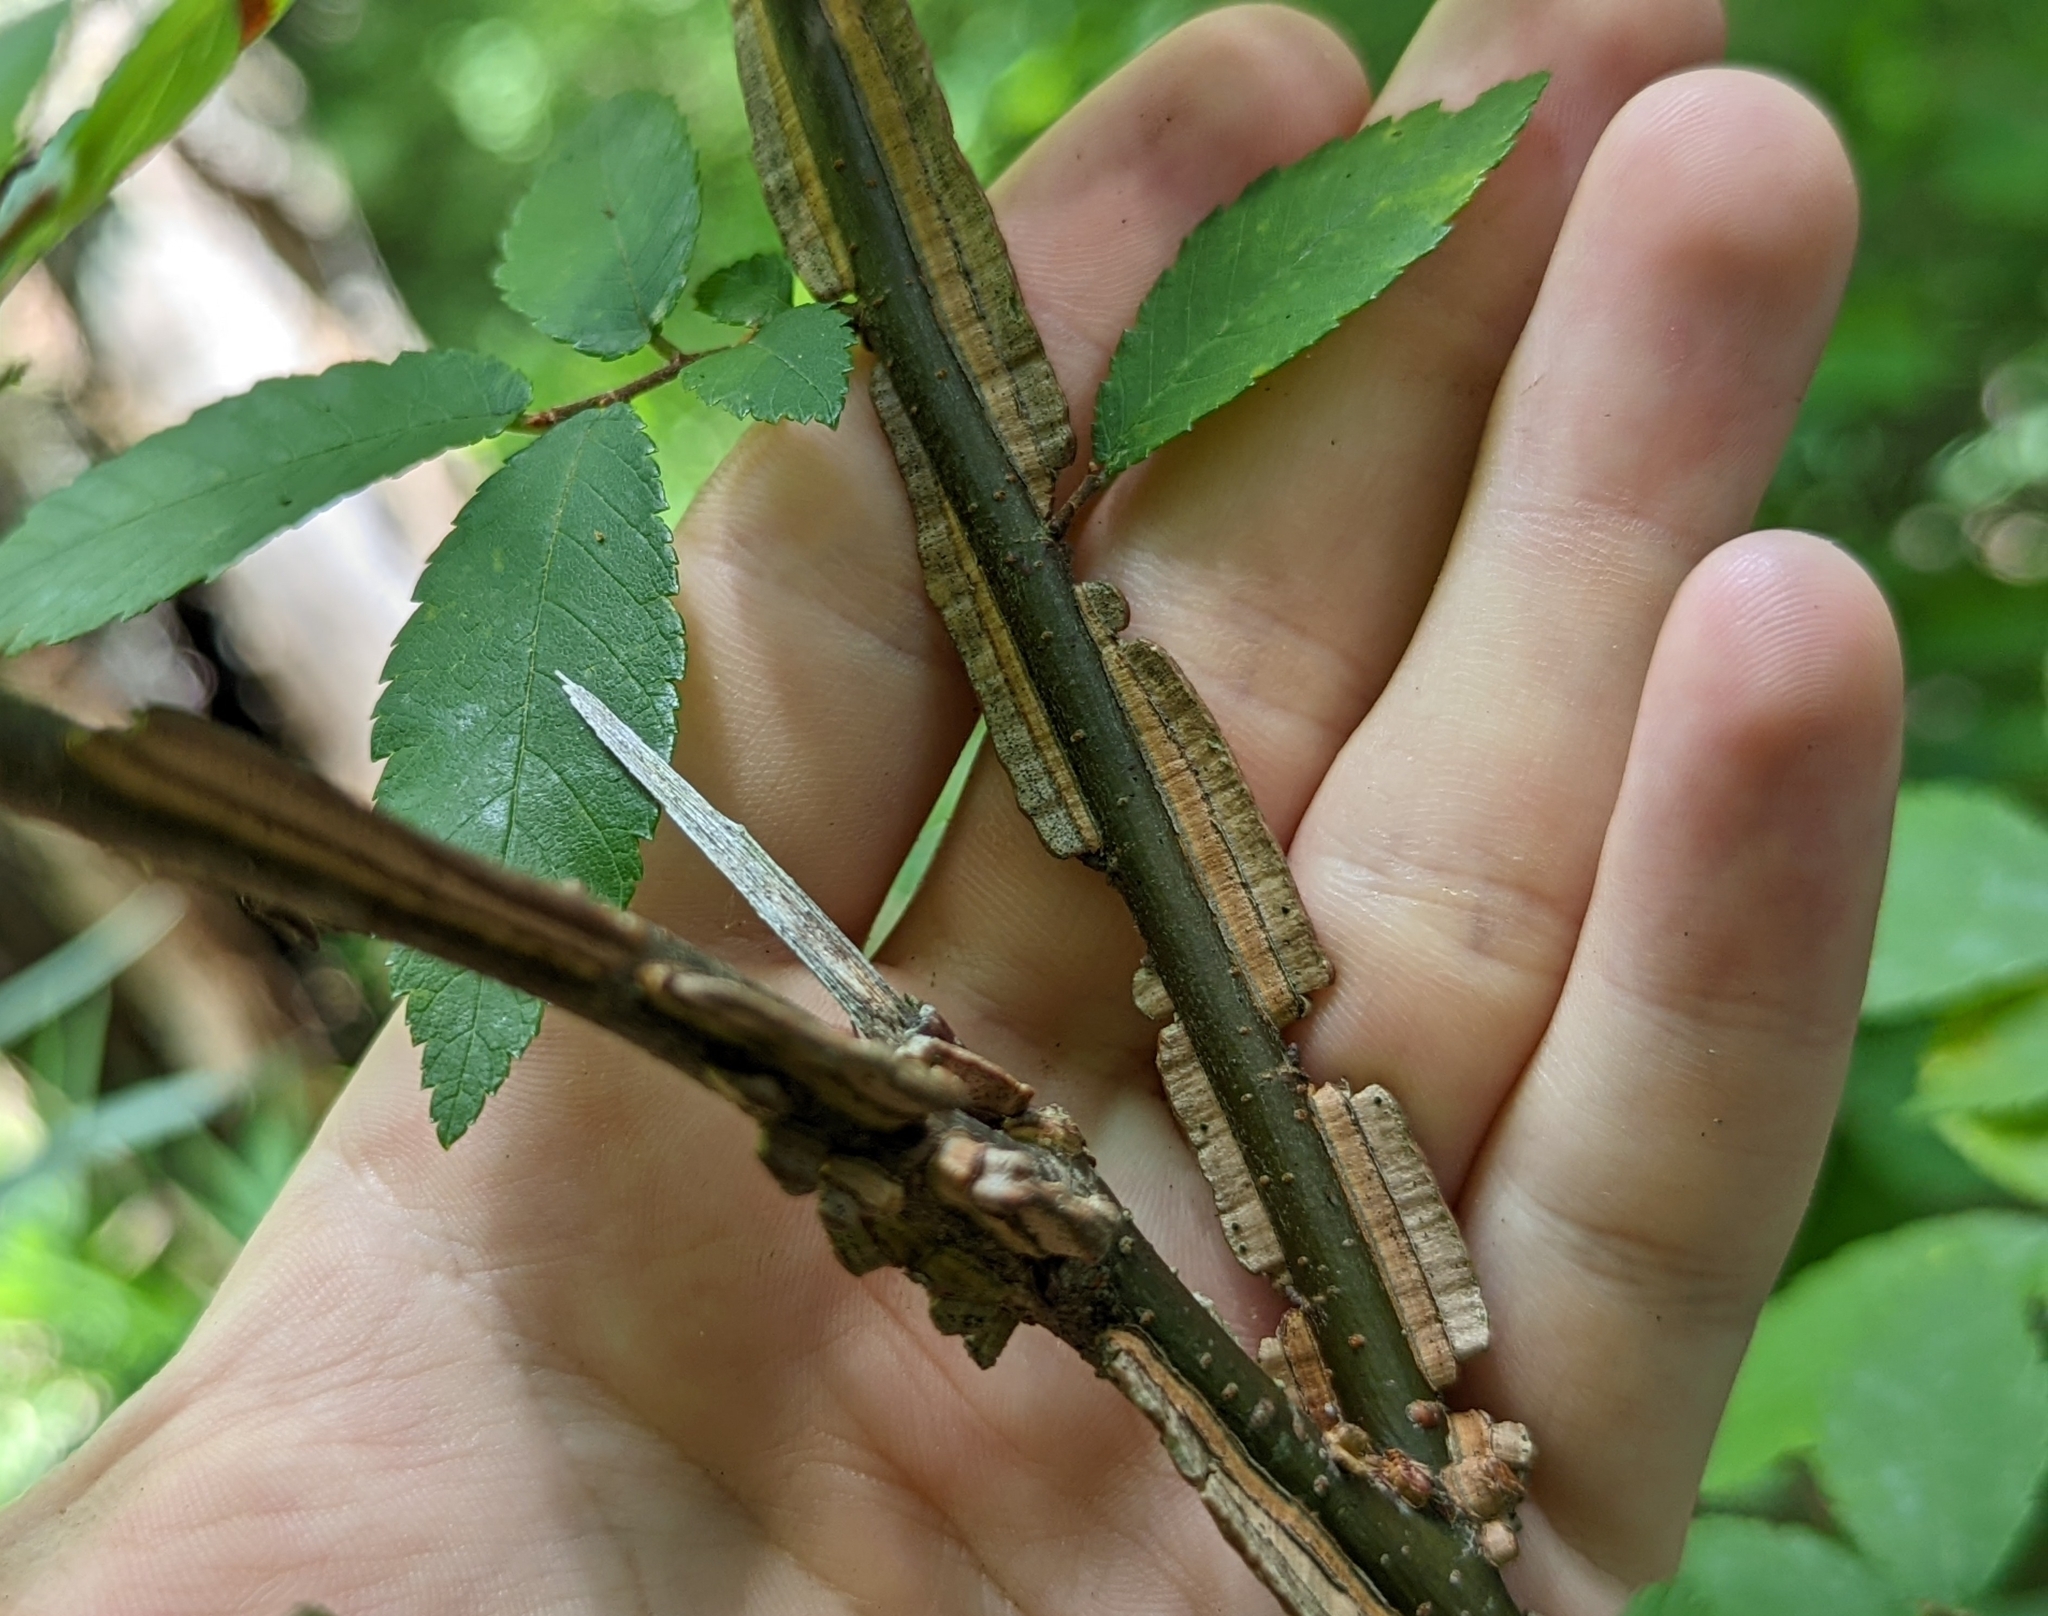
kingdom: Plantae
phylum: Tracheophyta
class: Magnoliopsida
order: Rosales
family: Ulmaceae
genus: Ulmus
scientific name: Ulmus alata
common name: Winged elm
